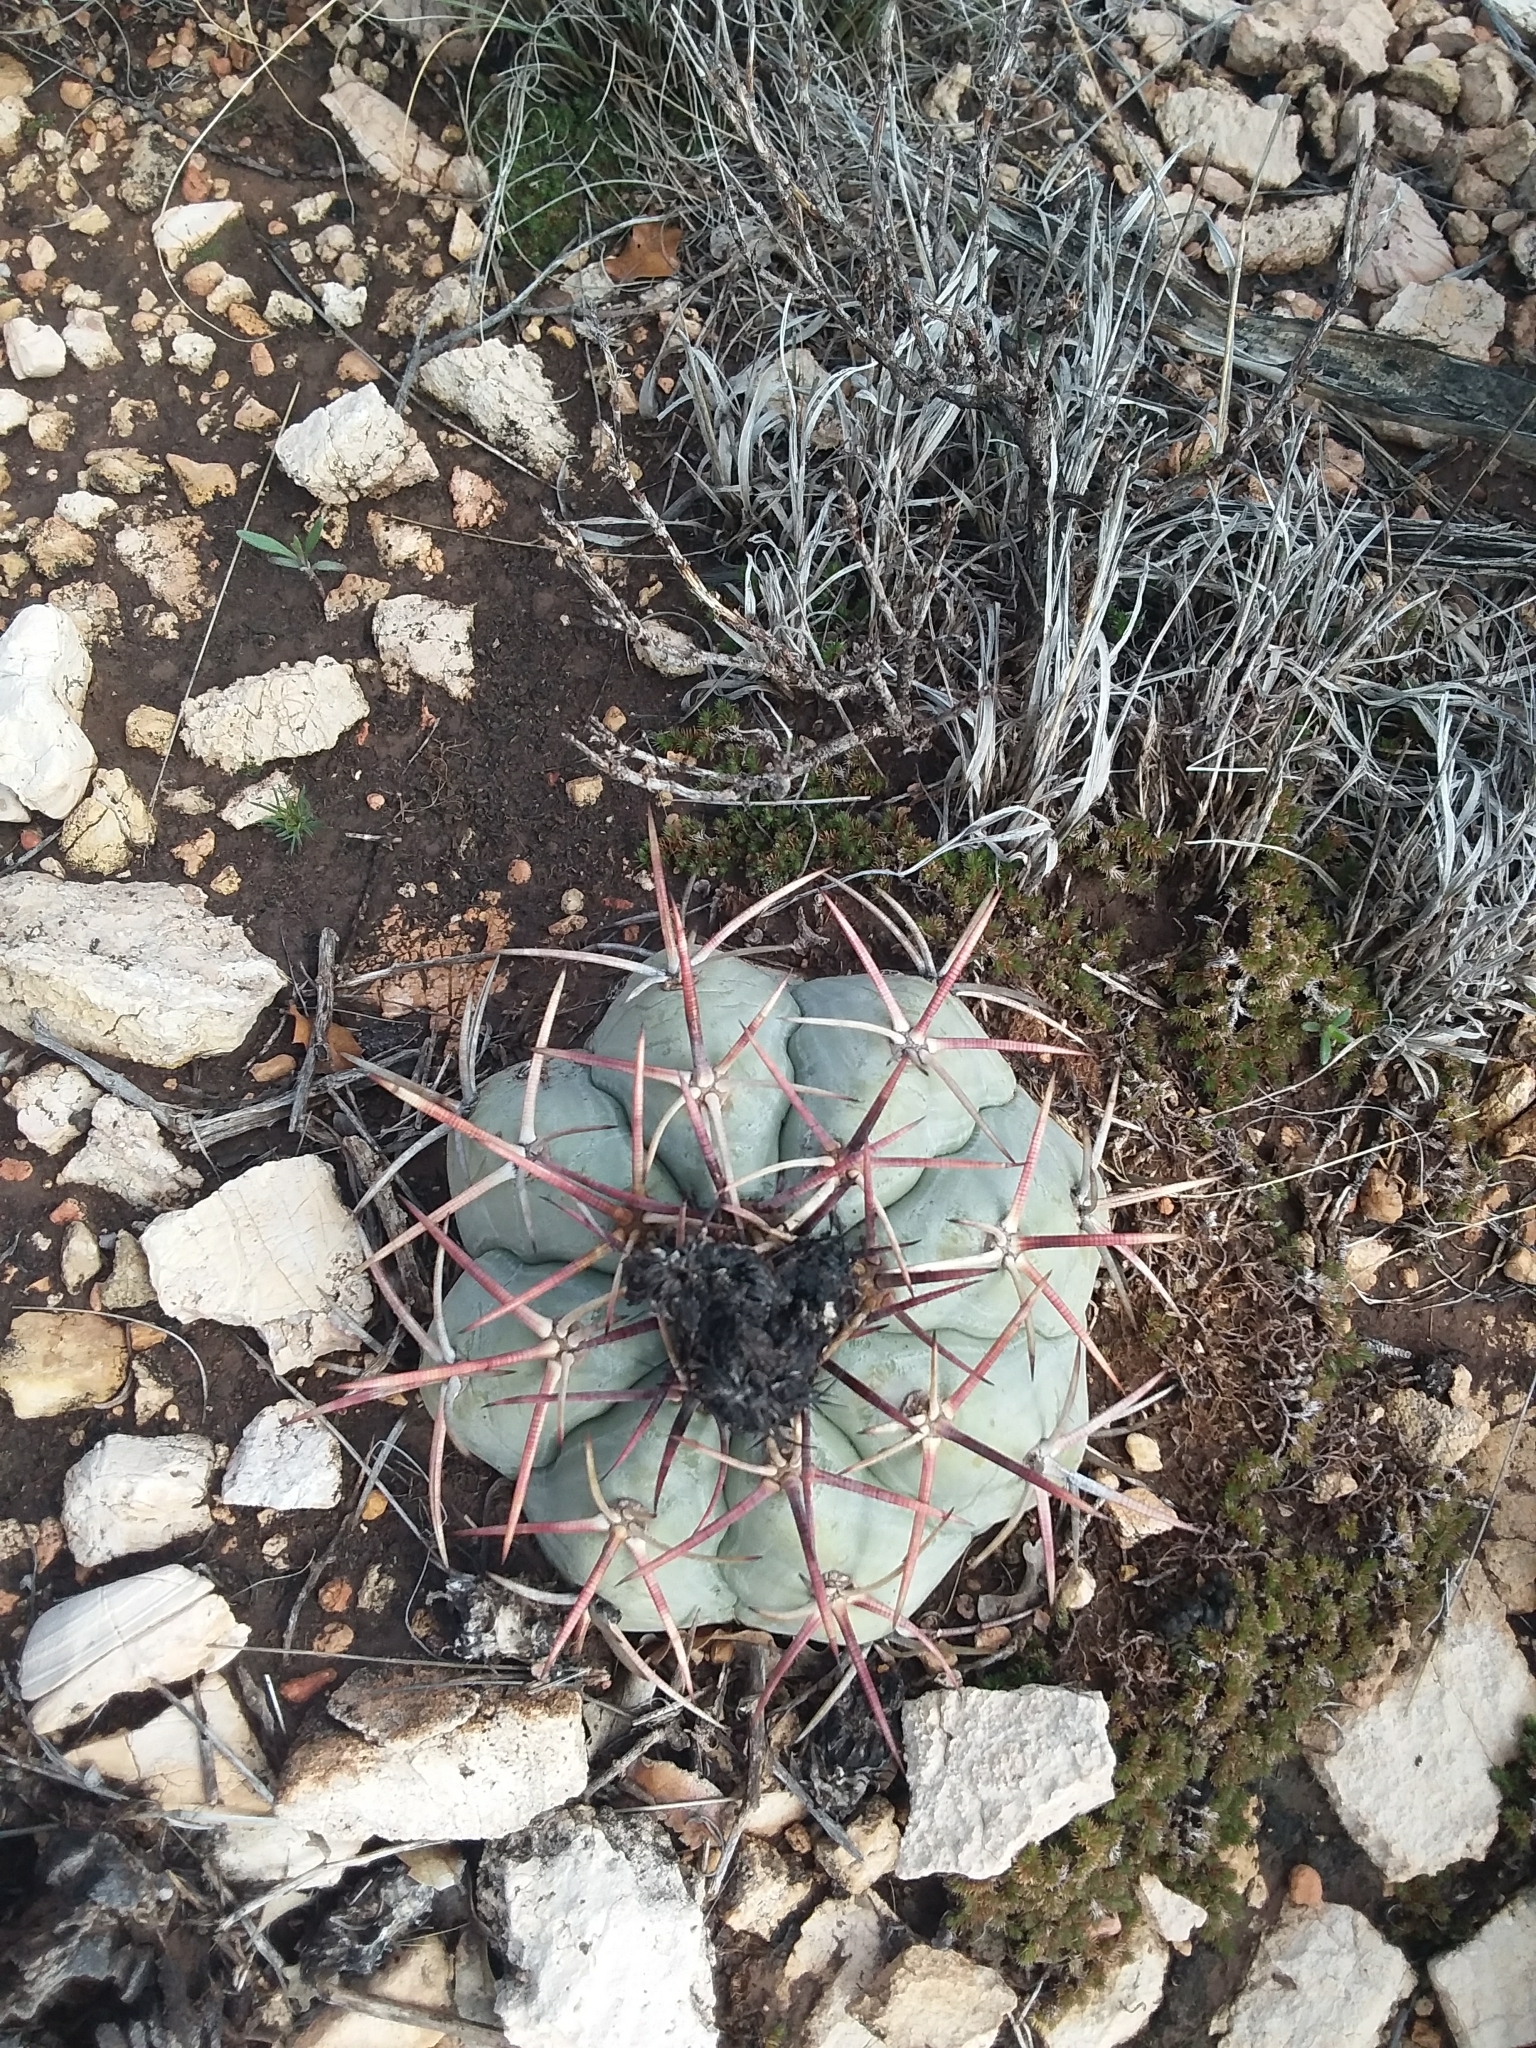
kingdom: Plantae
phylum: Tracheophyta
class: Magnoliopsida
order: Caryophyllales
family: Cactaceae
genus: Echinocactus
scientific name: Echinocactus horizonthalonius
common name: Devilshead
